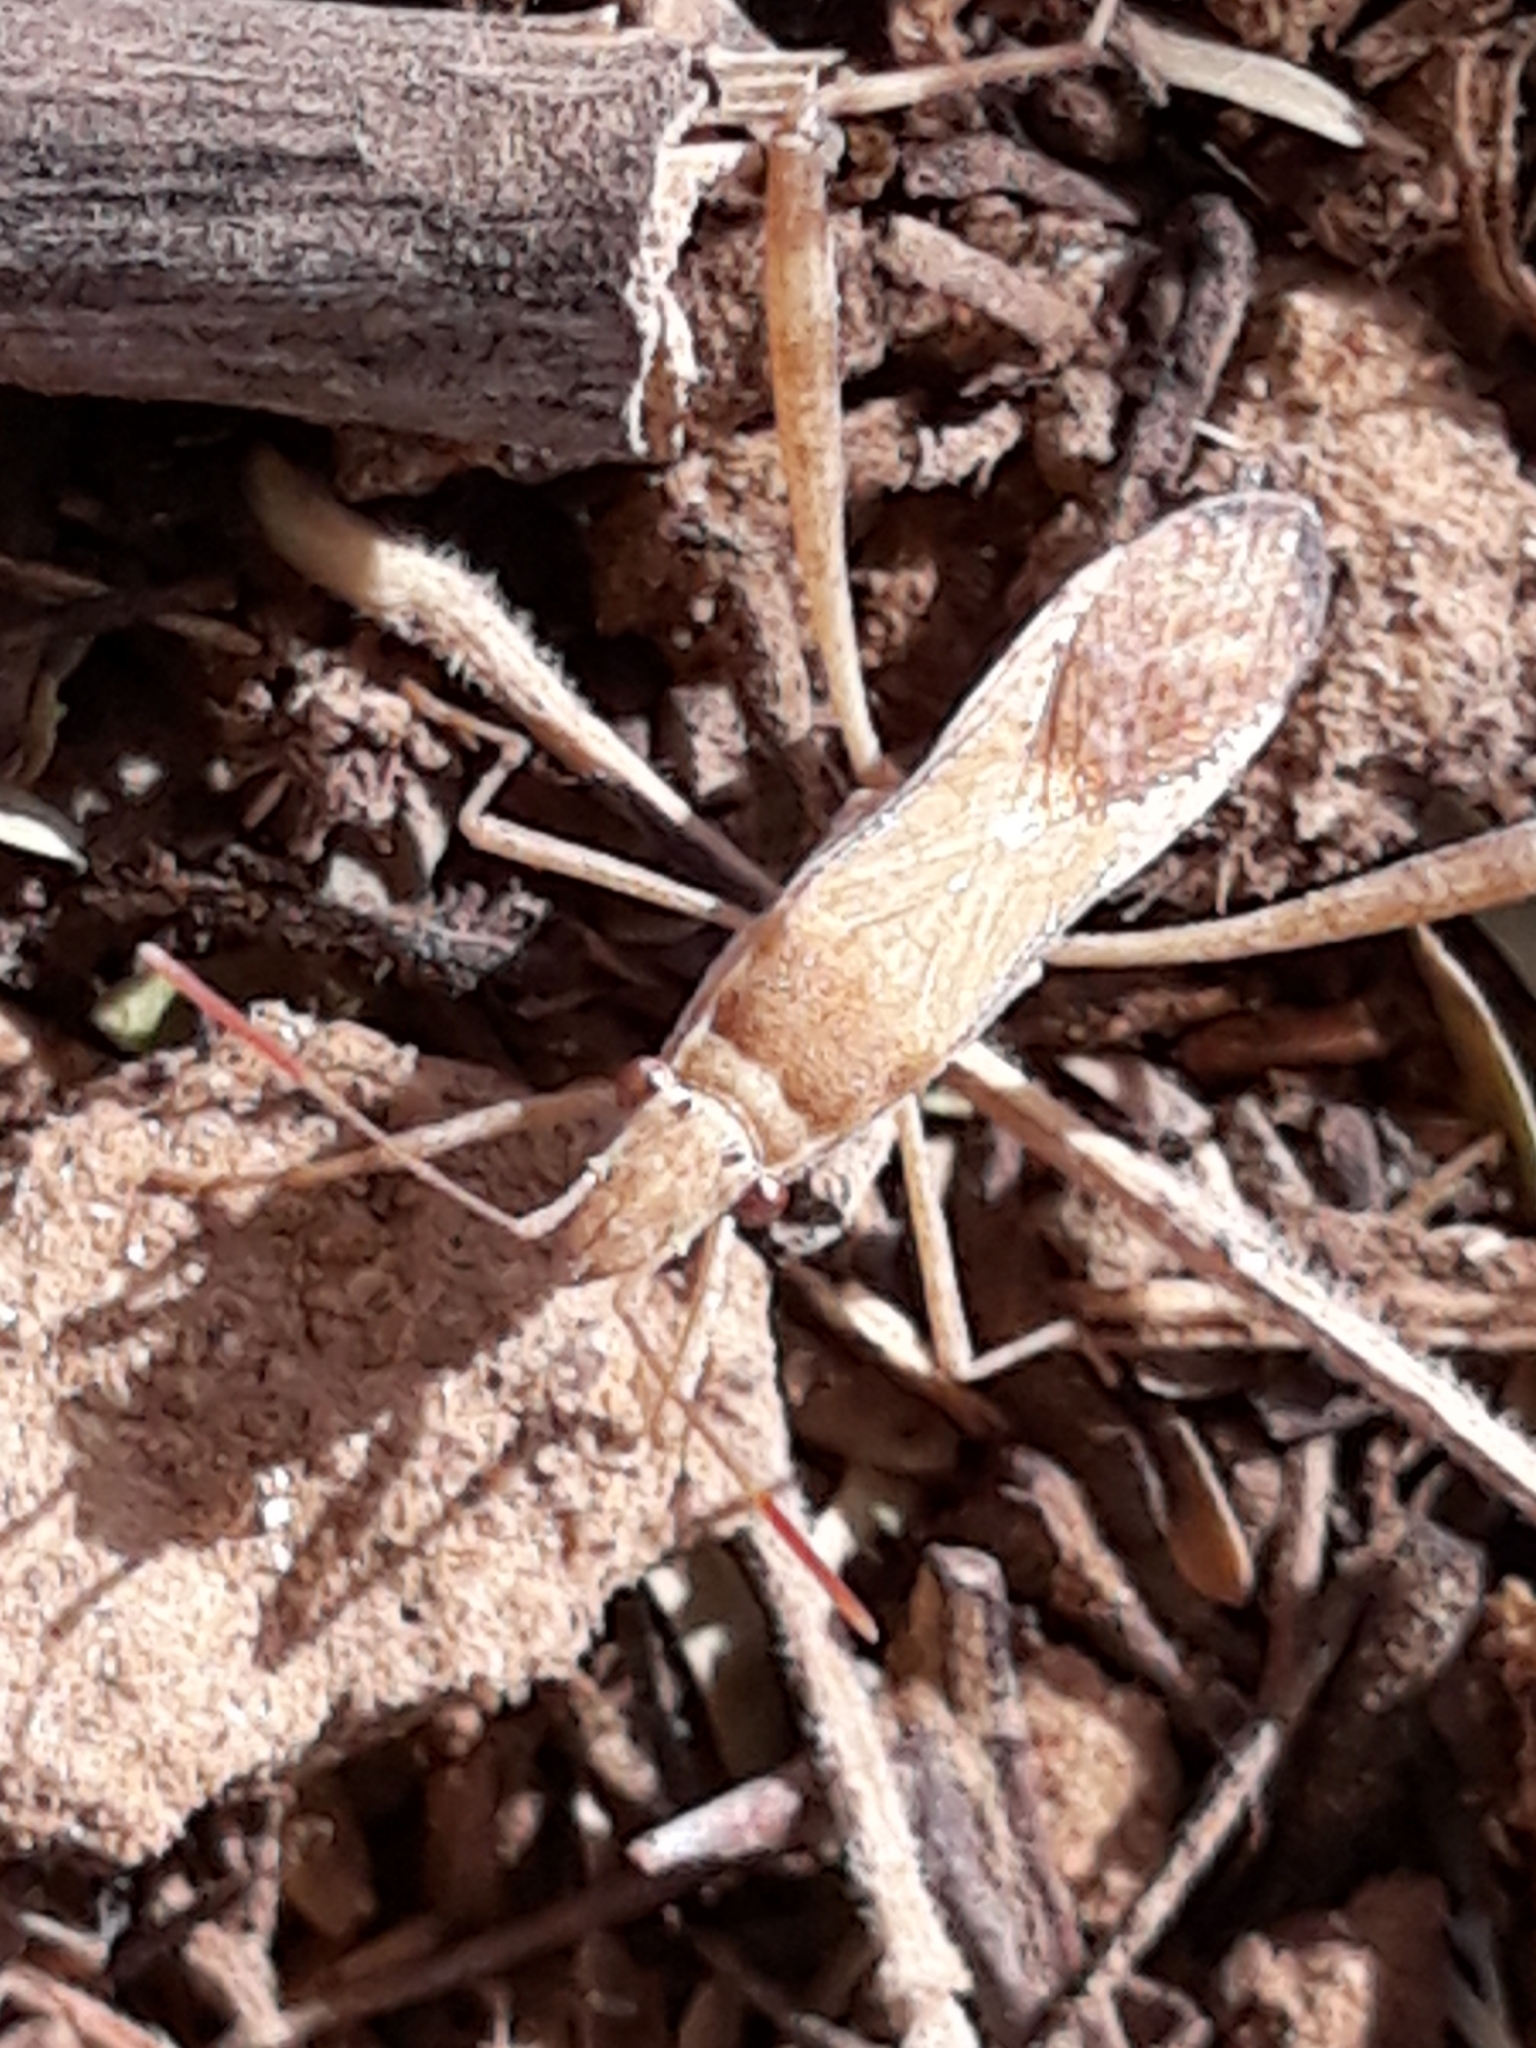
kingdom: Animalia
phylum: Arthropoda
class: Insecta
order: Hemiptera
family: Alydidae
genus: Nariscus
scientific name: Nariscus spinosus
